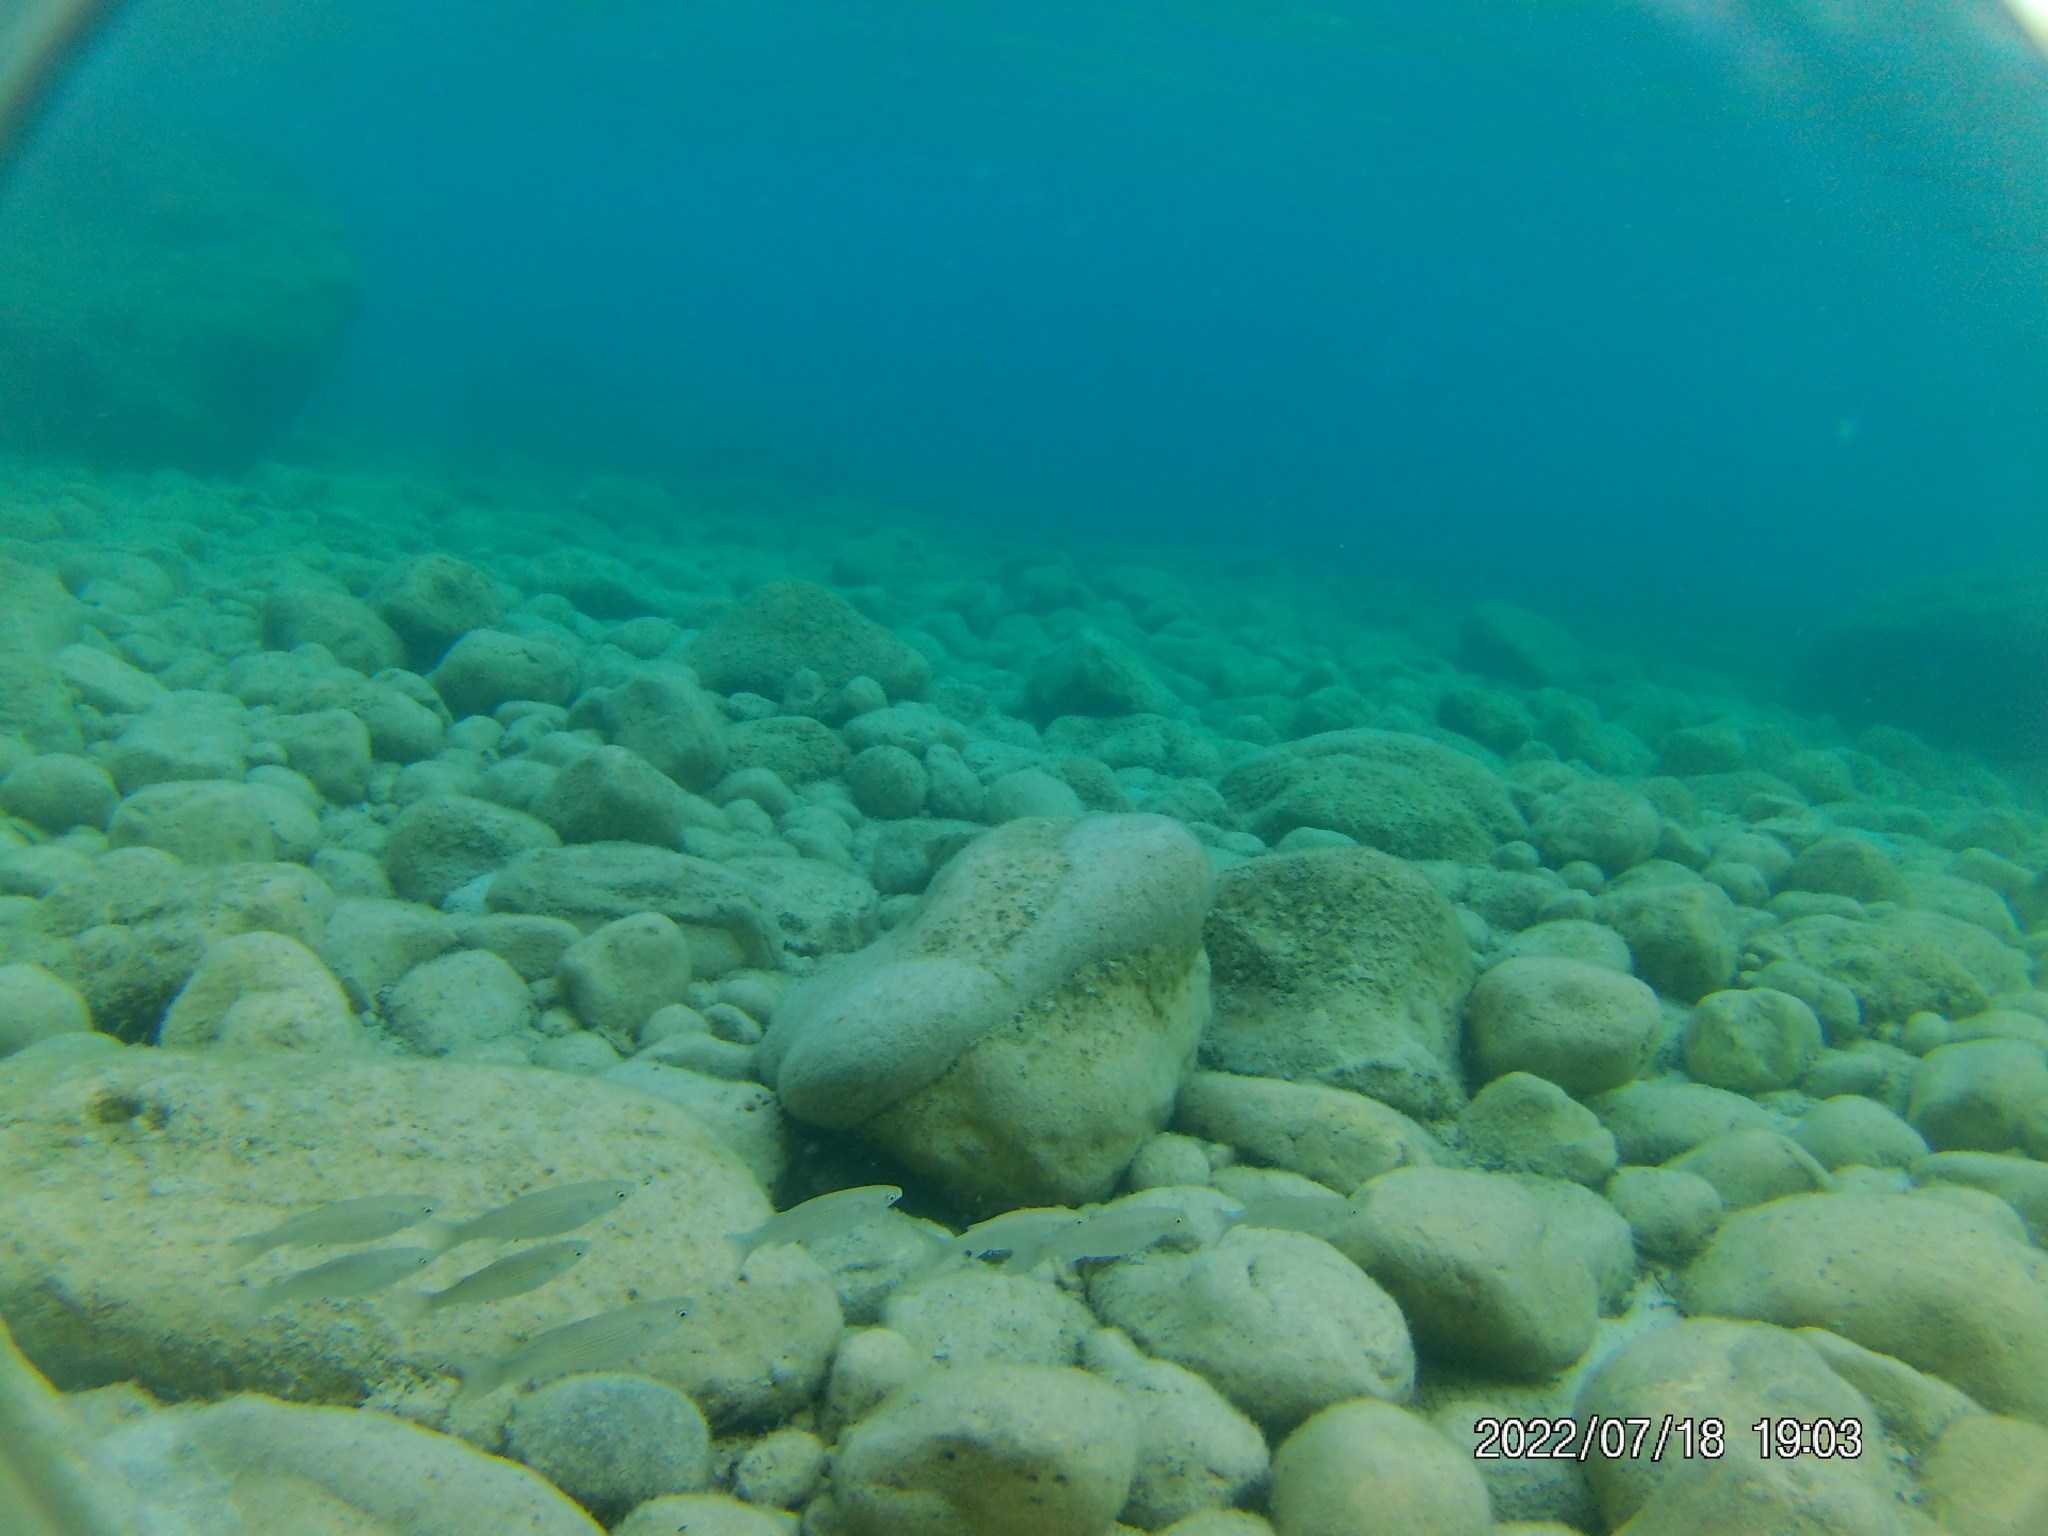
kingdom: Animalia
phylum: Chordata
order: Mugiliformes
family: Mugilidae
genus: Chelon
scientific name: Chelon
